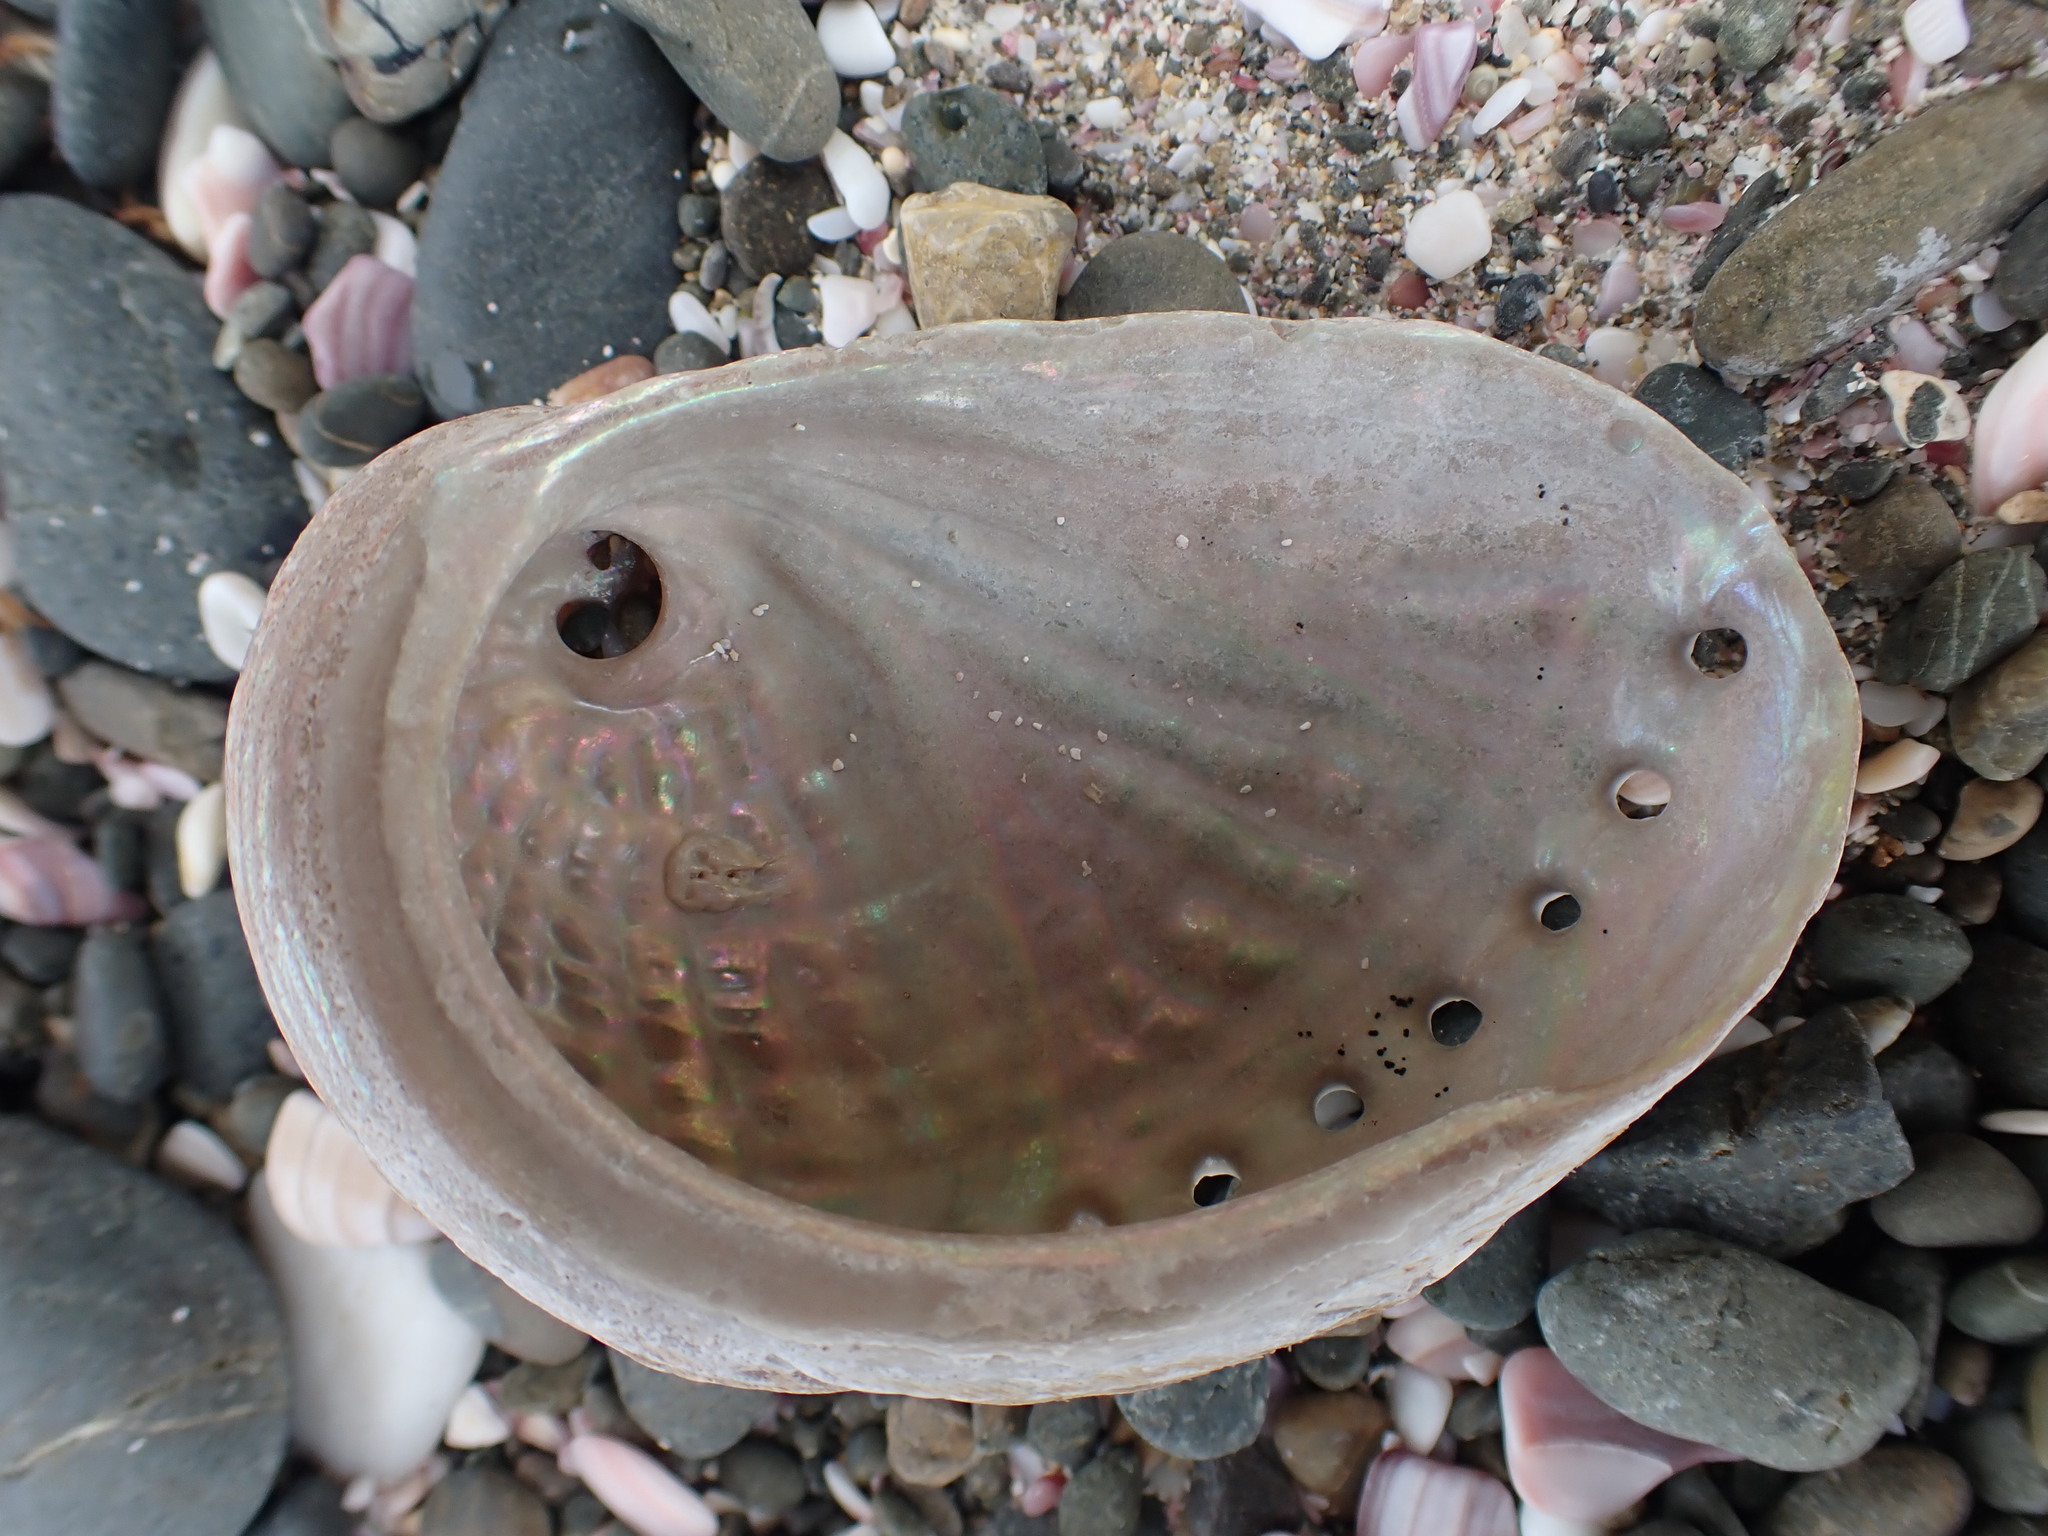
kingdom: Animalia
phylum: Mollusca
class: Gastropoda
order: Lepetellida
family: Haliotidae
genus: Haliotis
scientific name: Haliotis australis
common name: Silver abalone
